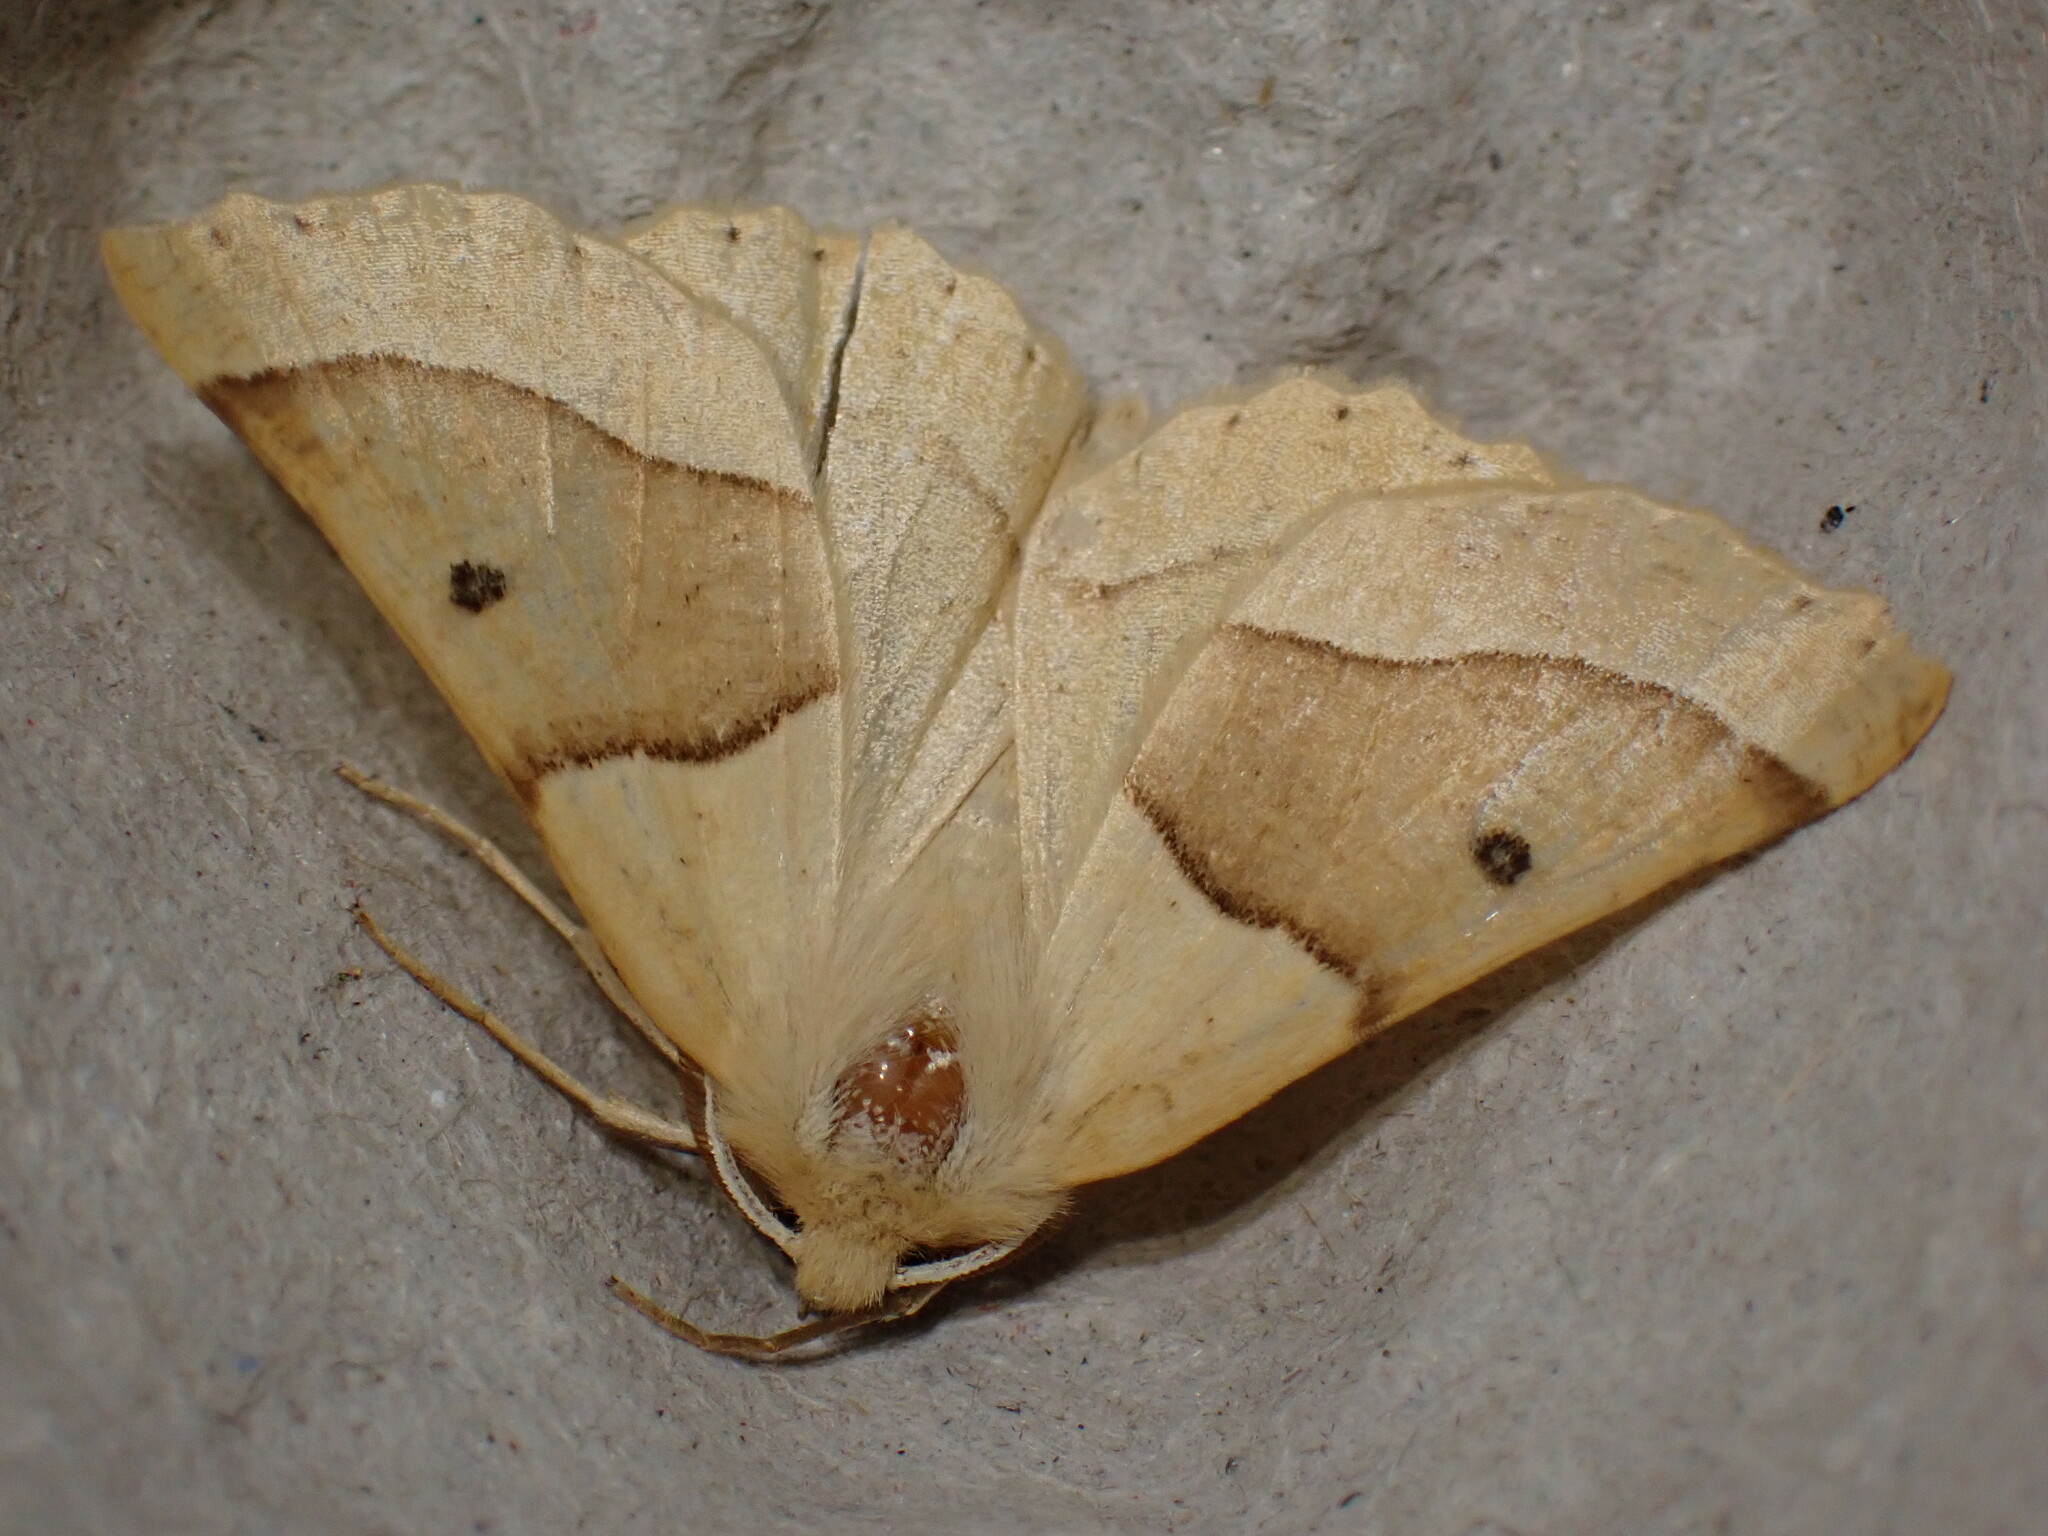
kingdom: Animalia
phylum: Arthropoda
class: Insecta
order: Lepidoptera
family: Geometridae
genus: Crocallis
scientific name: Crocallis elinguaria
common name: Scalloped oak
